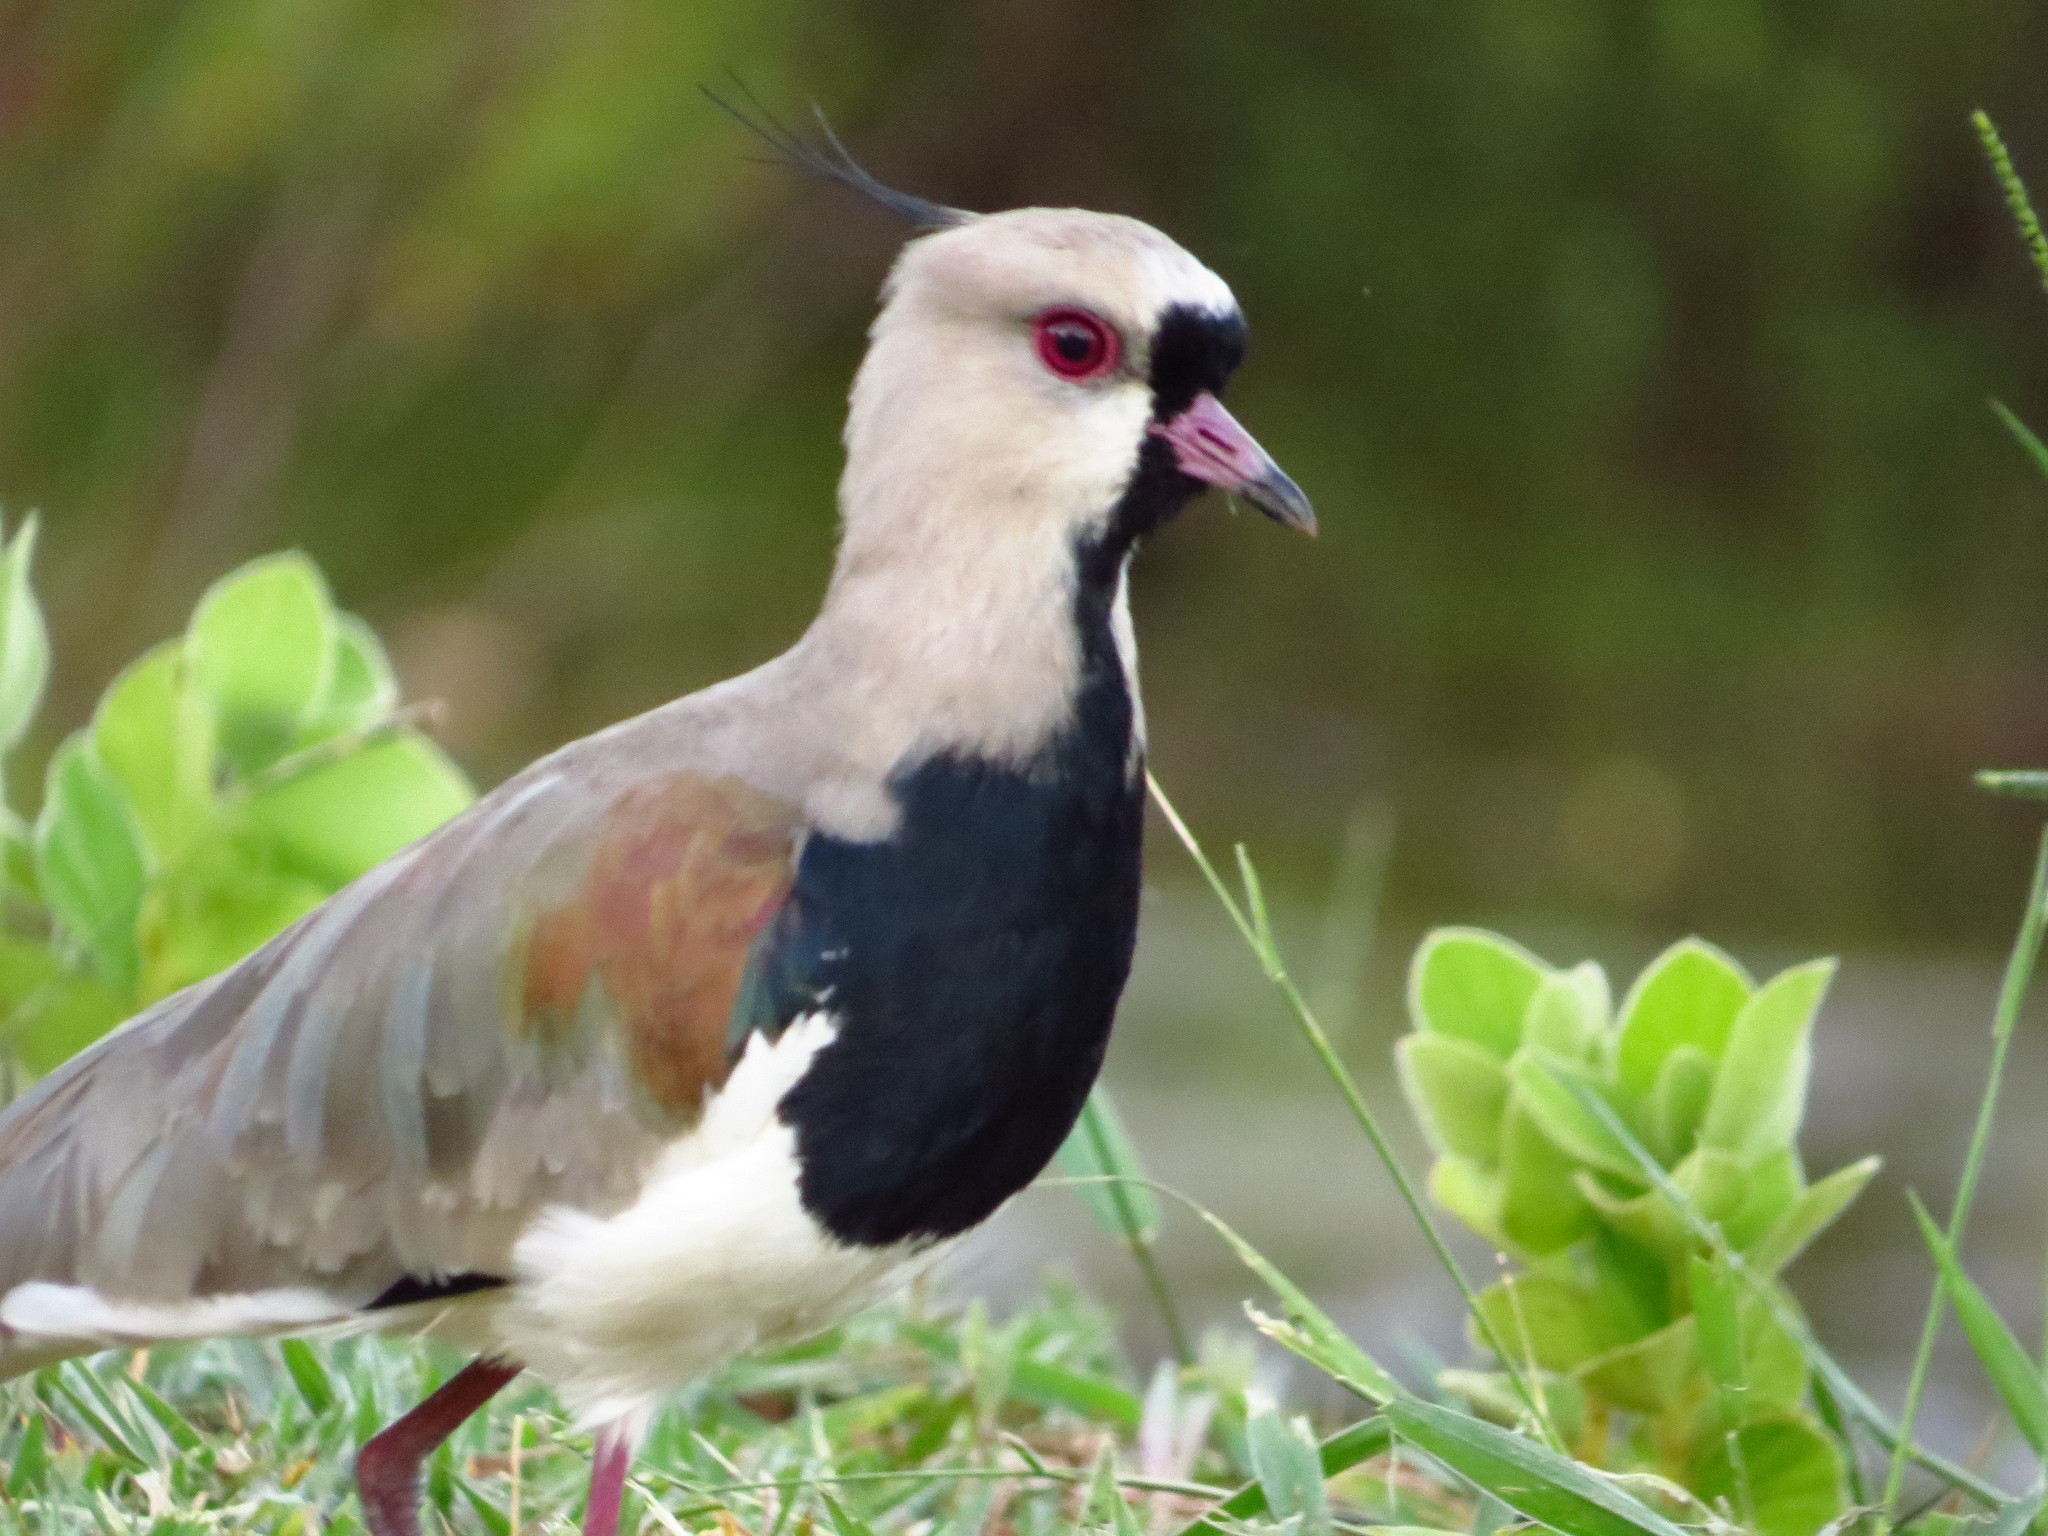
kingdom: Animalia
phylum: Chordata
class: Aves
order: Charadriiformes
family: Charadriidae
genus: Vanellus
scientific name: Vanellus chilensis
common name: Southern lapwing
